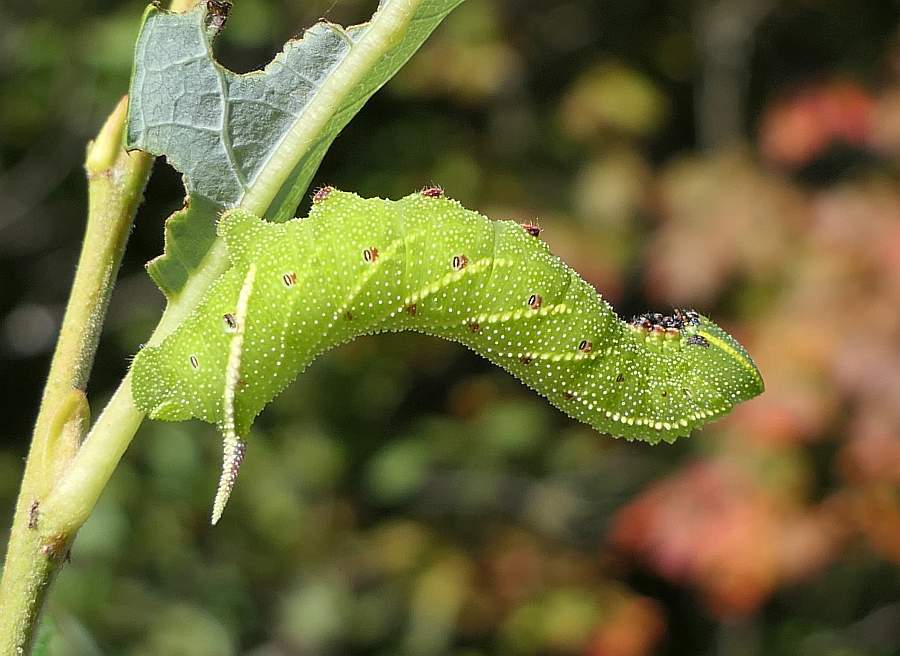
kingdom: Animalia
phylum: Arthropoda
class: Insecta
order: Lepidoptera
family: Sphingidae
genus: Paonias
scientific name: Paonias excaecata
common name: Blind-eyed sphinx
